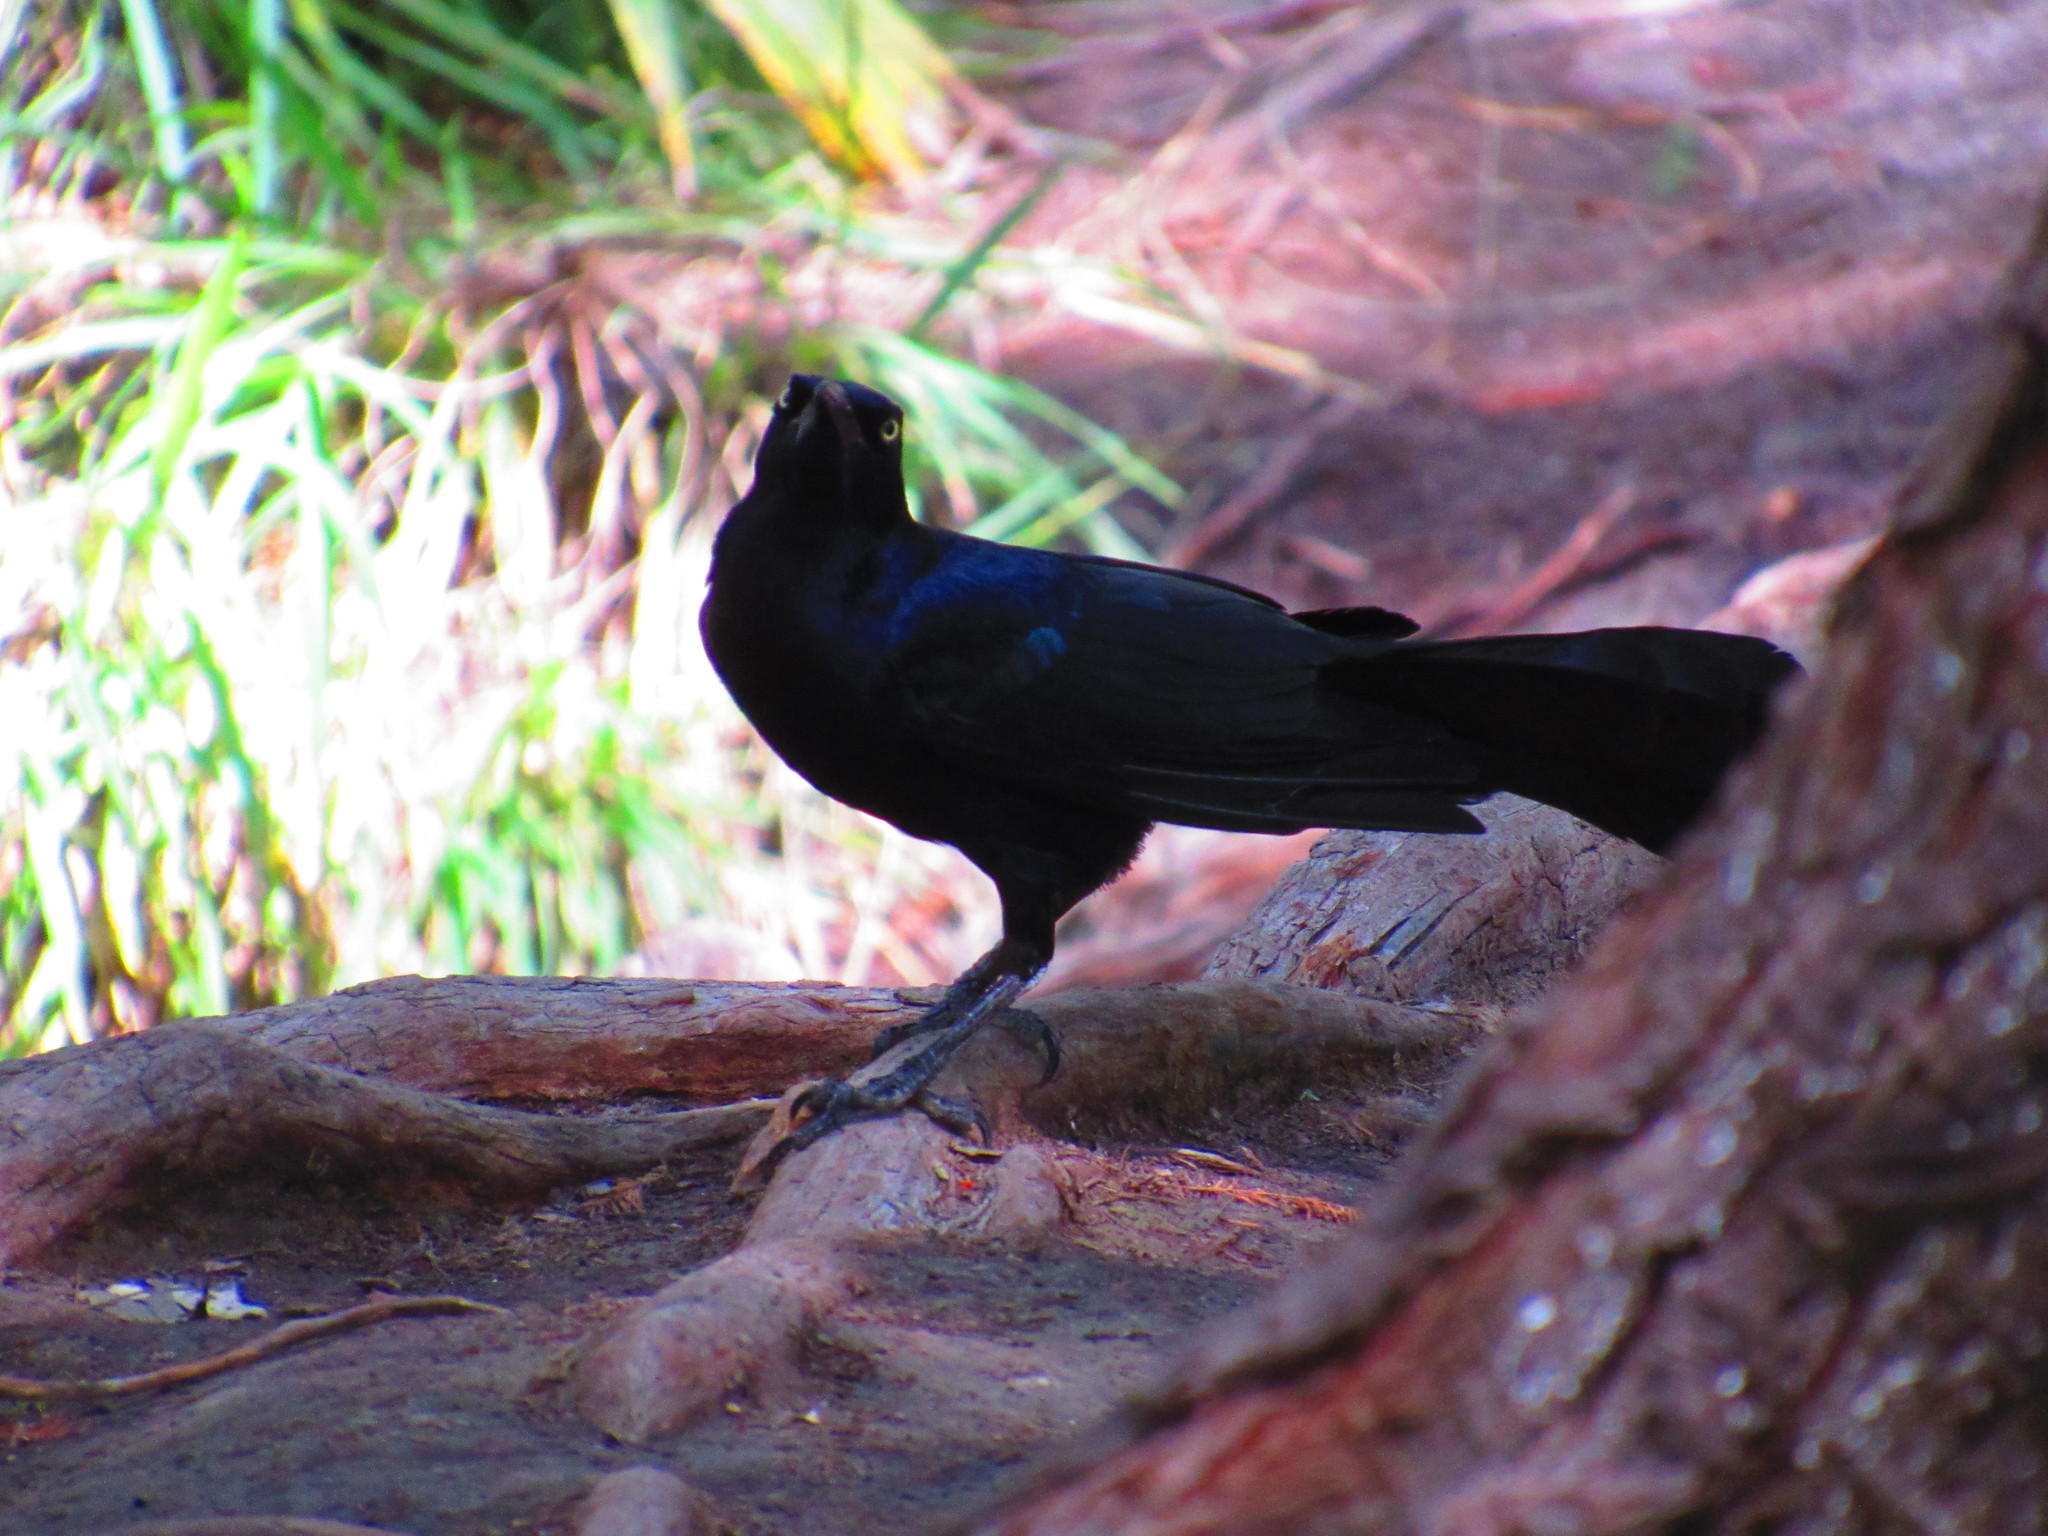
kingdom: Animalia
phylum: Chordata
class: Aves
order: Passeriformes
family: Icteridae
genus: Quiscalus
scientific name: Quiscalus mexicanus
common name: Great-tailed grackle
